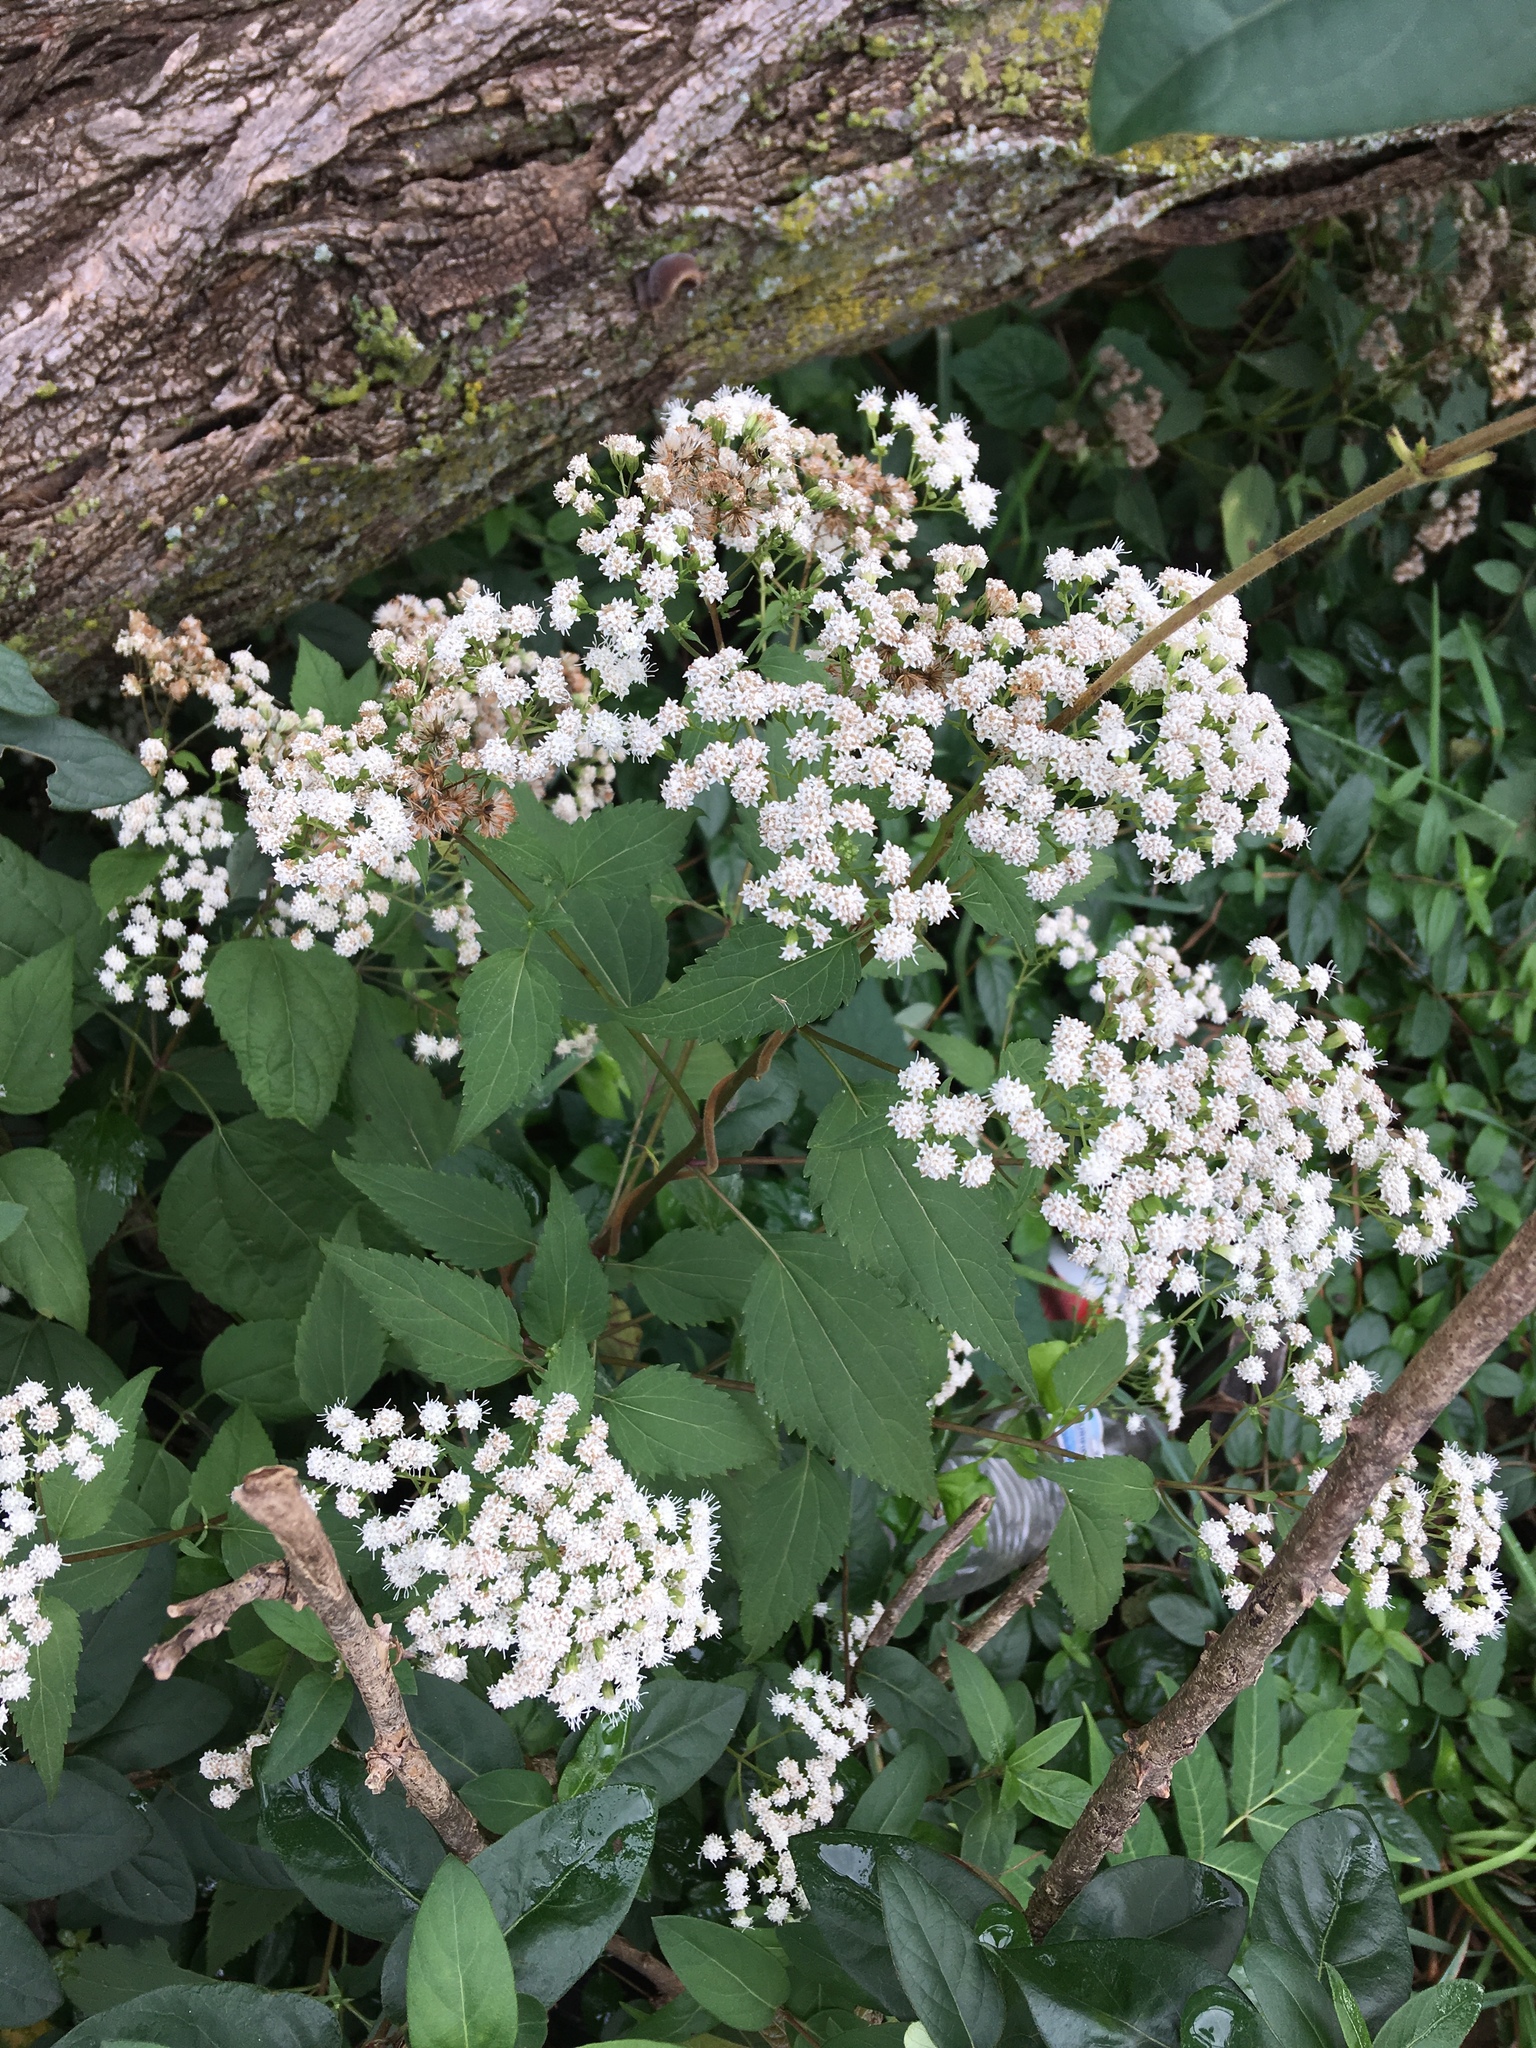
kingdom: Plantae
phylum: Tracheophyta
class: Magnoliopsida
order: Asterales
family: Asteraceae
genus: Ageratina
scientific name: Ageratina altissima
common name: White snakeroot
